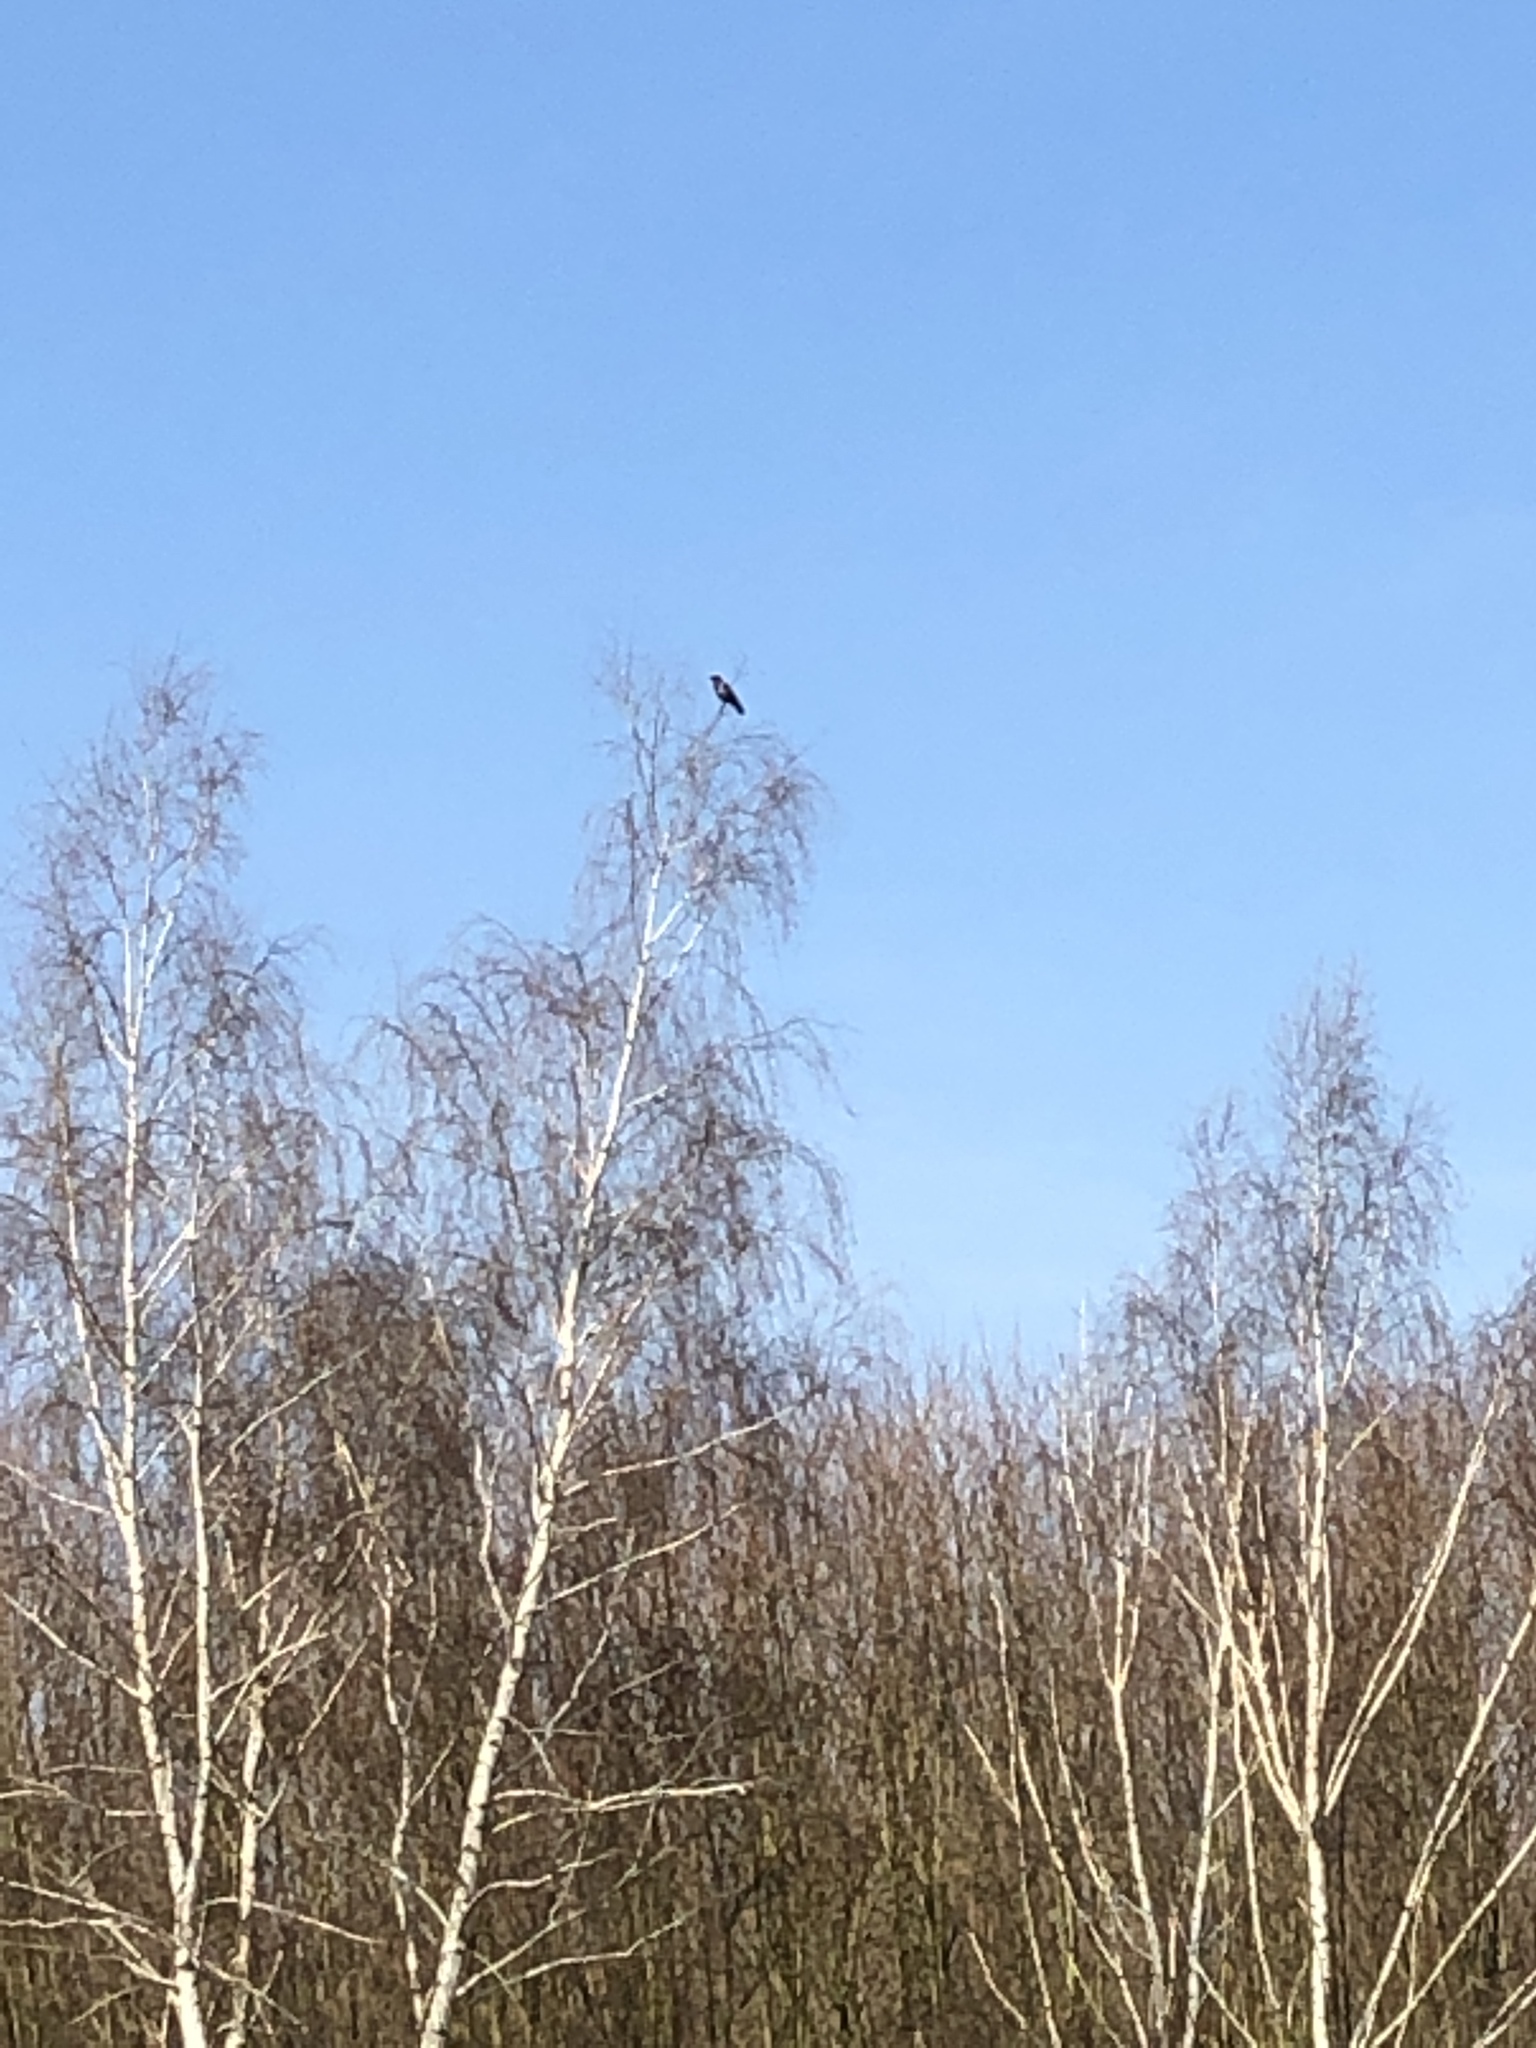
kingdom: Animalia
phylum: Chordata
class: Aves
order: Passeriformes
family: Corvidae
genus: Corvus
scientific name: Corvus cornix
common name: Hooded crow
